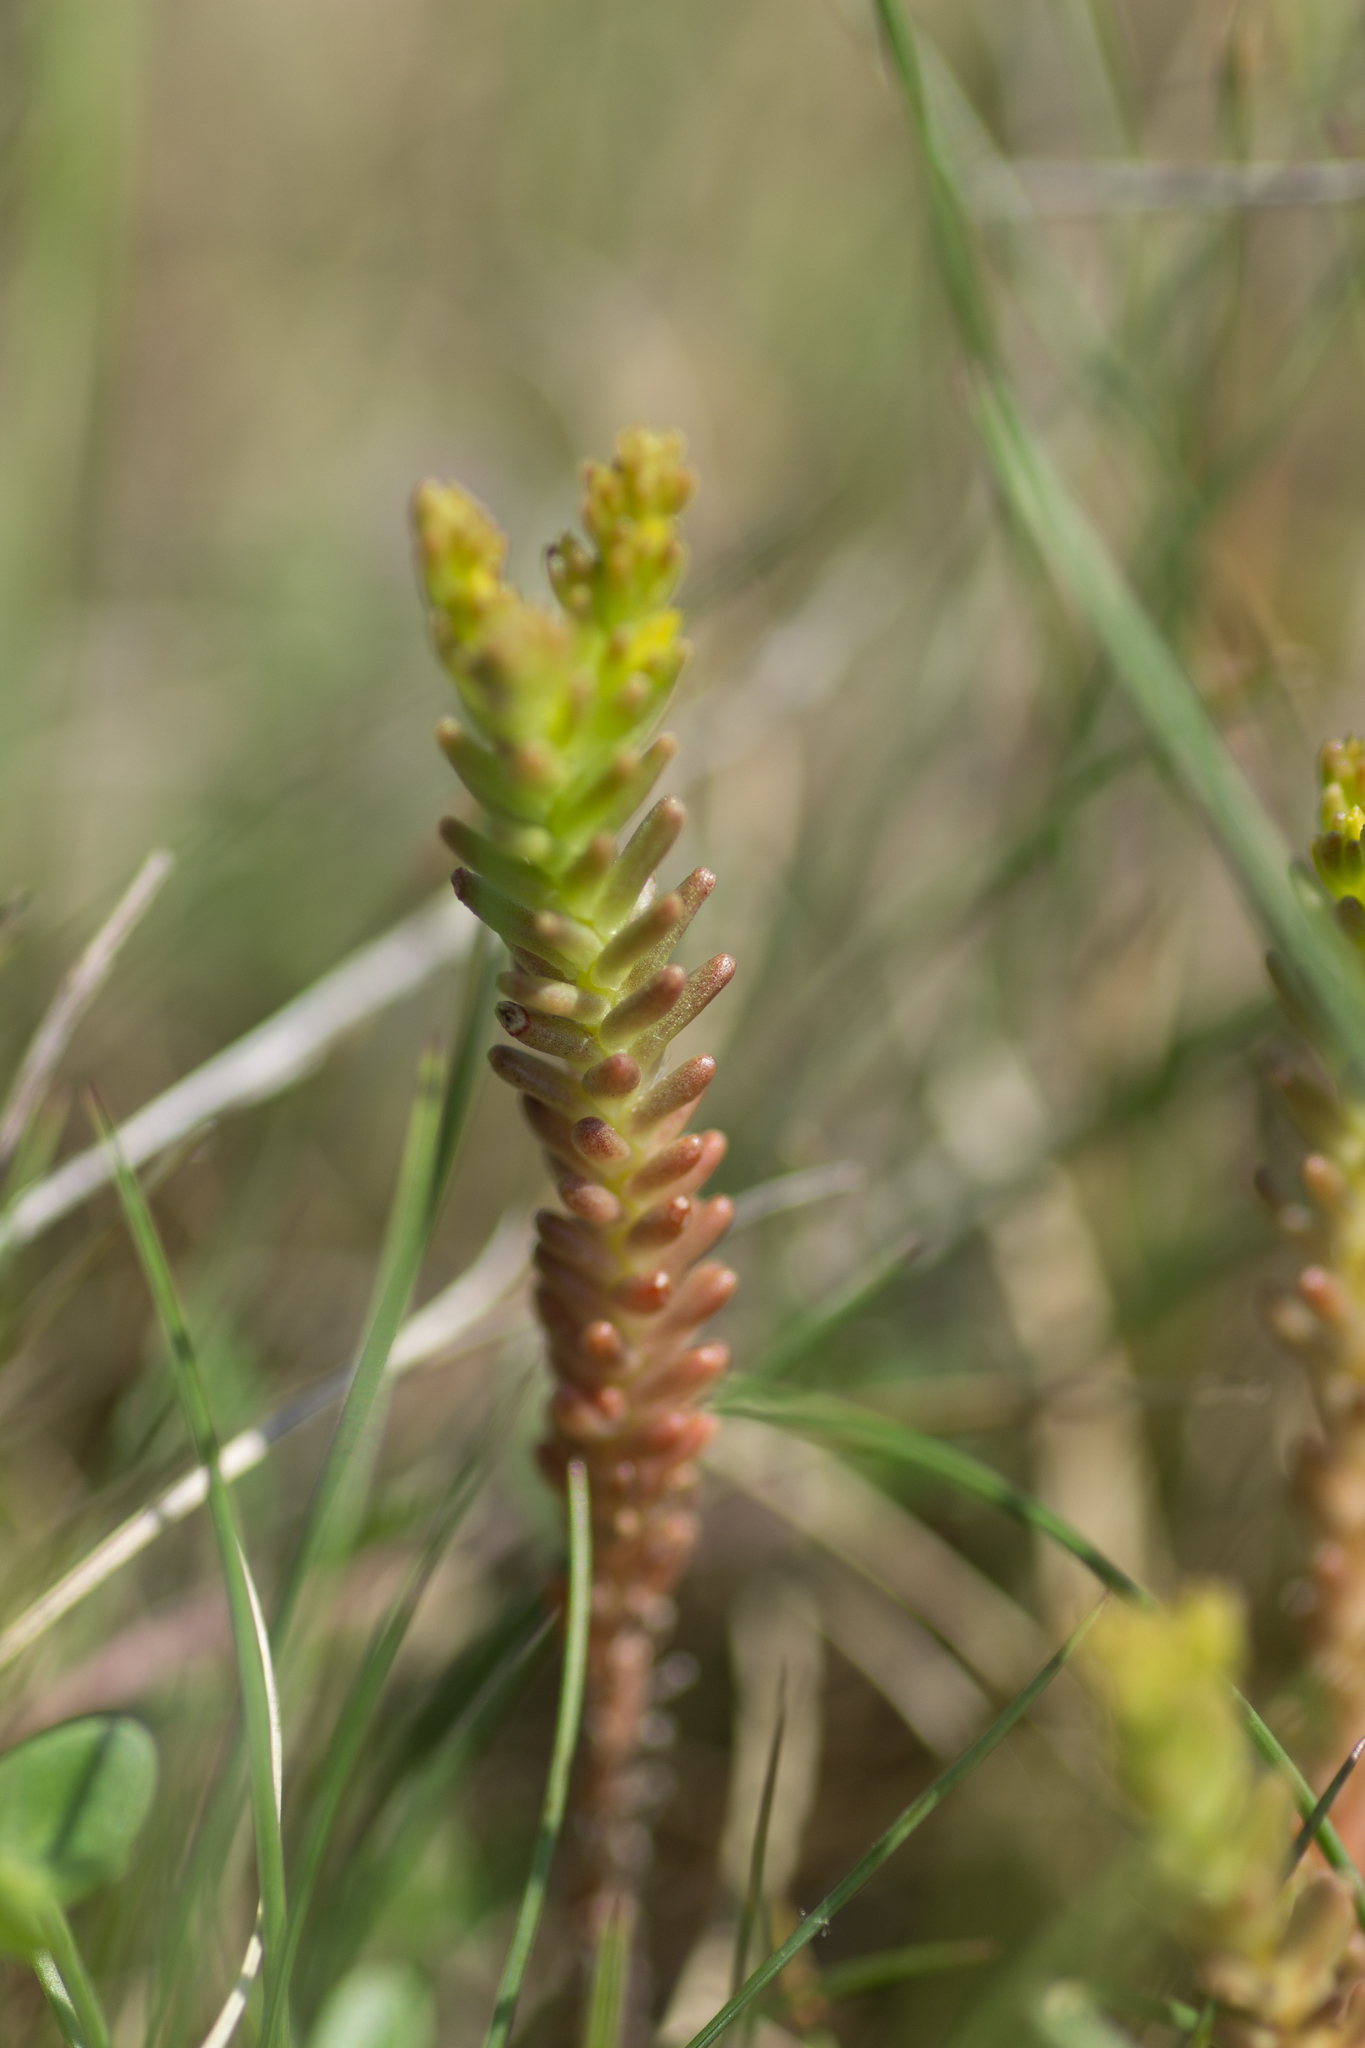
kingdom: Plantae
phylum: Tracheophyta
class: Magnoliopsida
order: Saxifragales
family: Crassulaceae
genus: Sedum
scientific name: Sedum sexangulare
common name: Tasteless stonecrop
